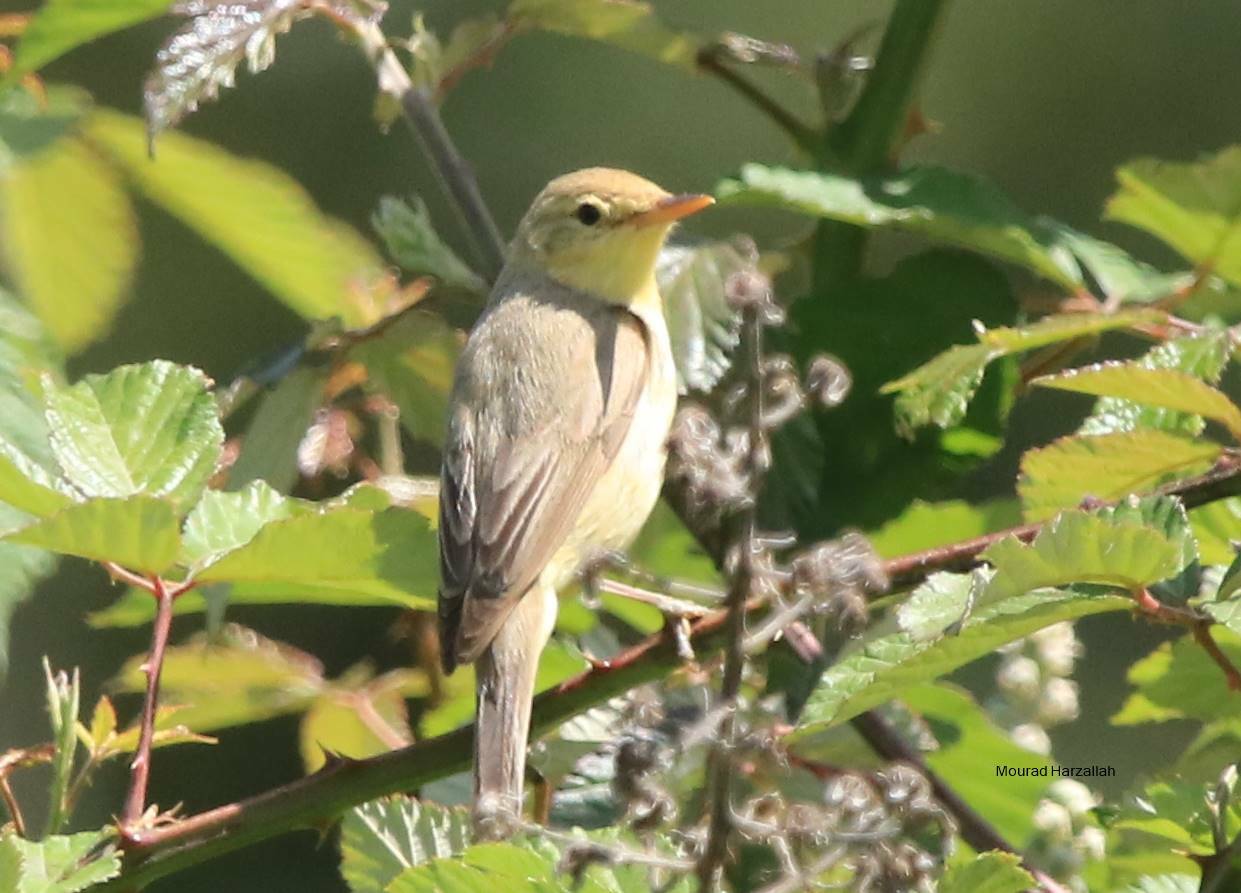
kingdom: Animalia
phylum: Chordata
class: Aves
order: Passeriformes
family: Acrocephalidae
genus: Hippolais
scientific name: Hippolais polyglotta
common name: Melodious warbler
